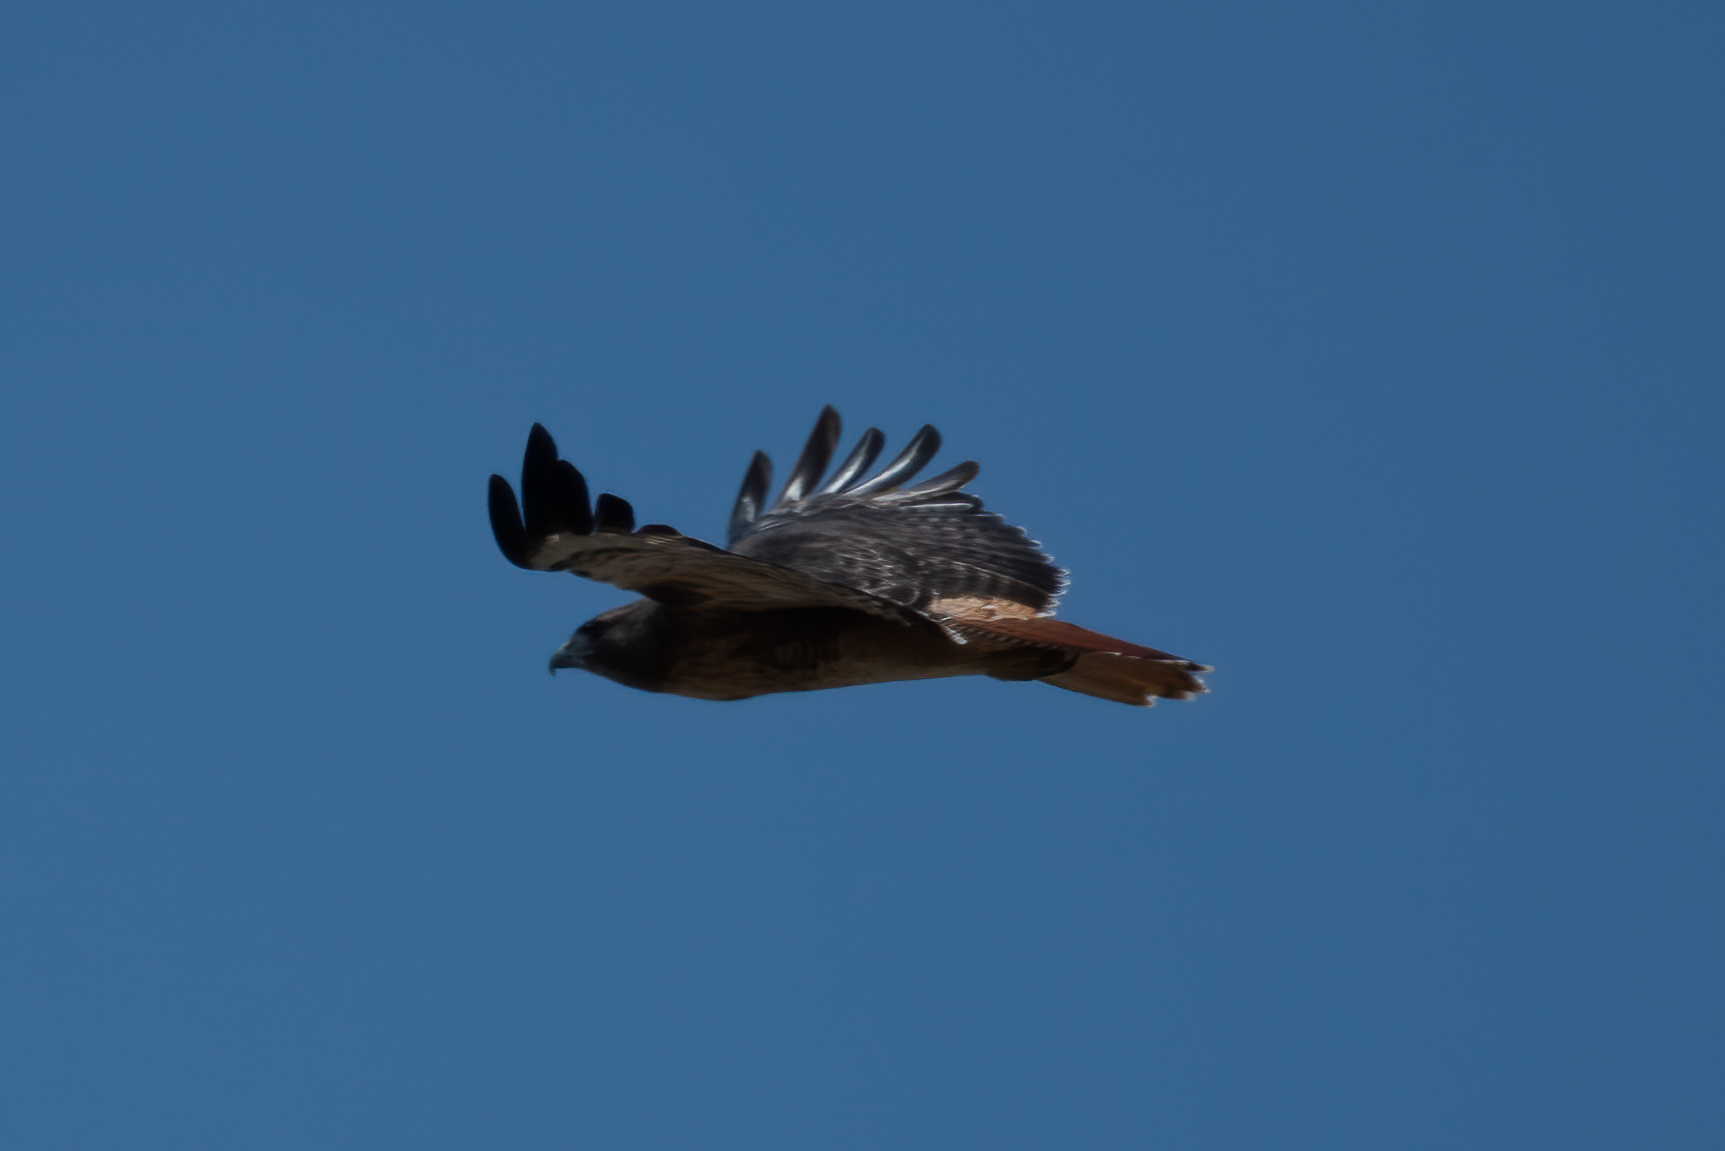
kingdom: Animalia
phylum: Chordata
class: Aves
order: Accipitriformes
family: Accipitridae
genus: Buteo
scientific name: Buteo jamaicensis
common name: Red-tailed hawk
